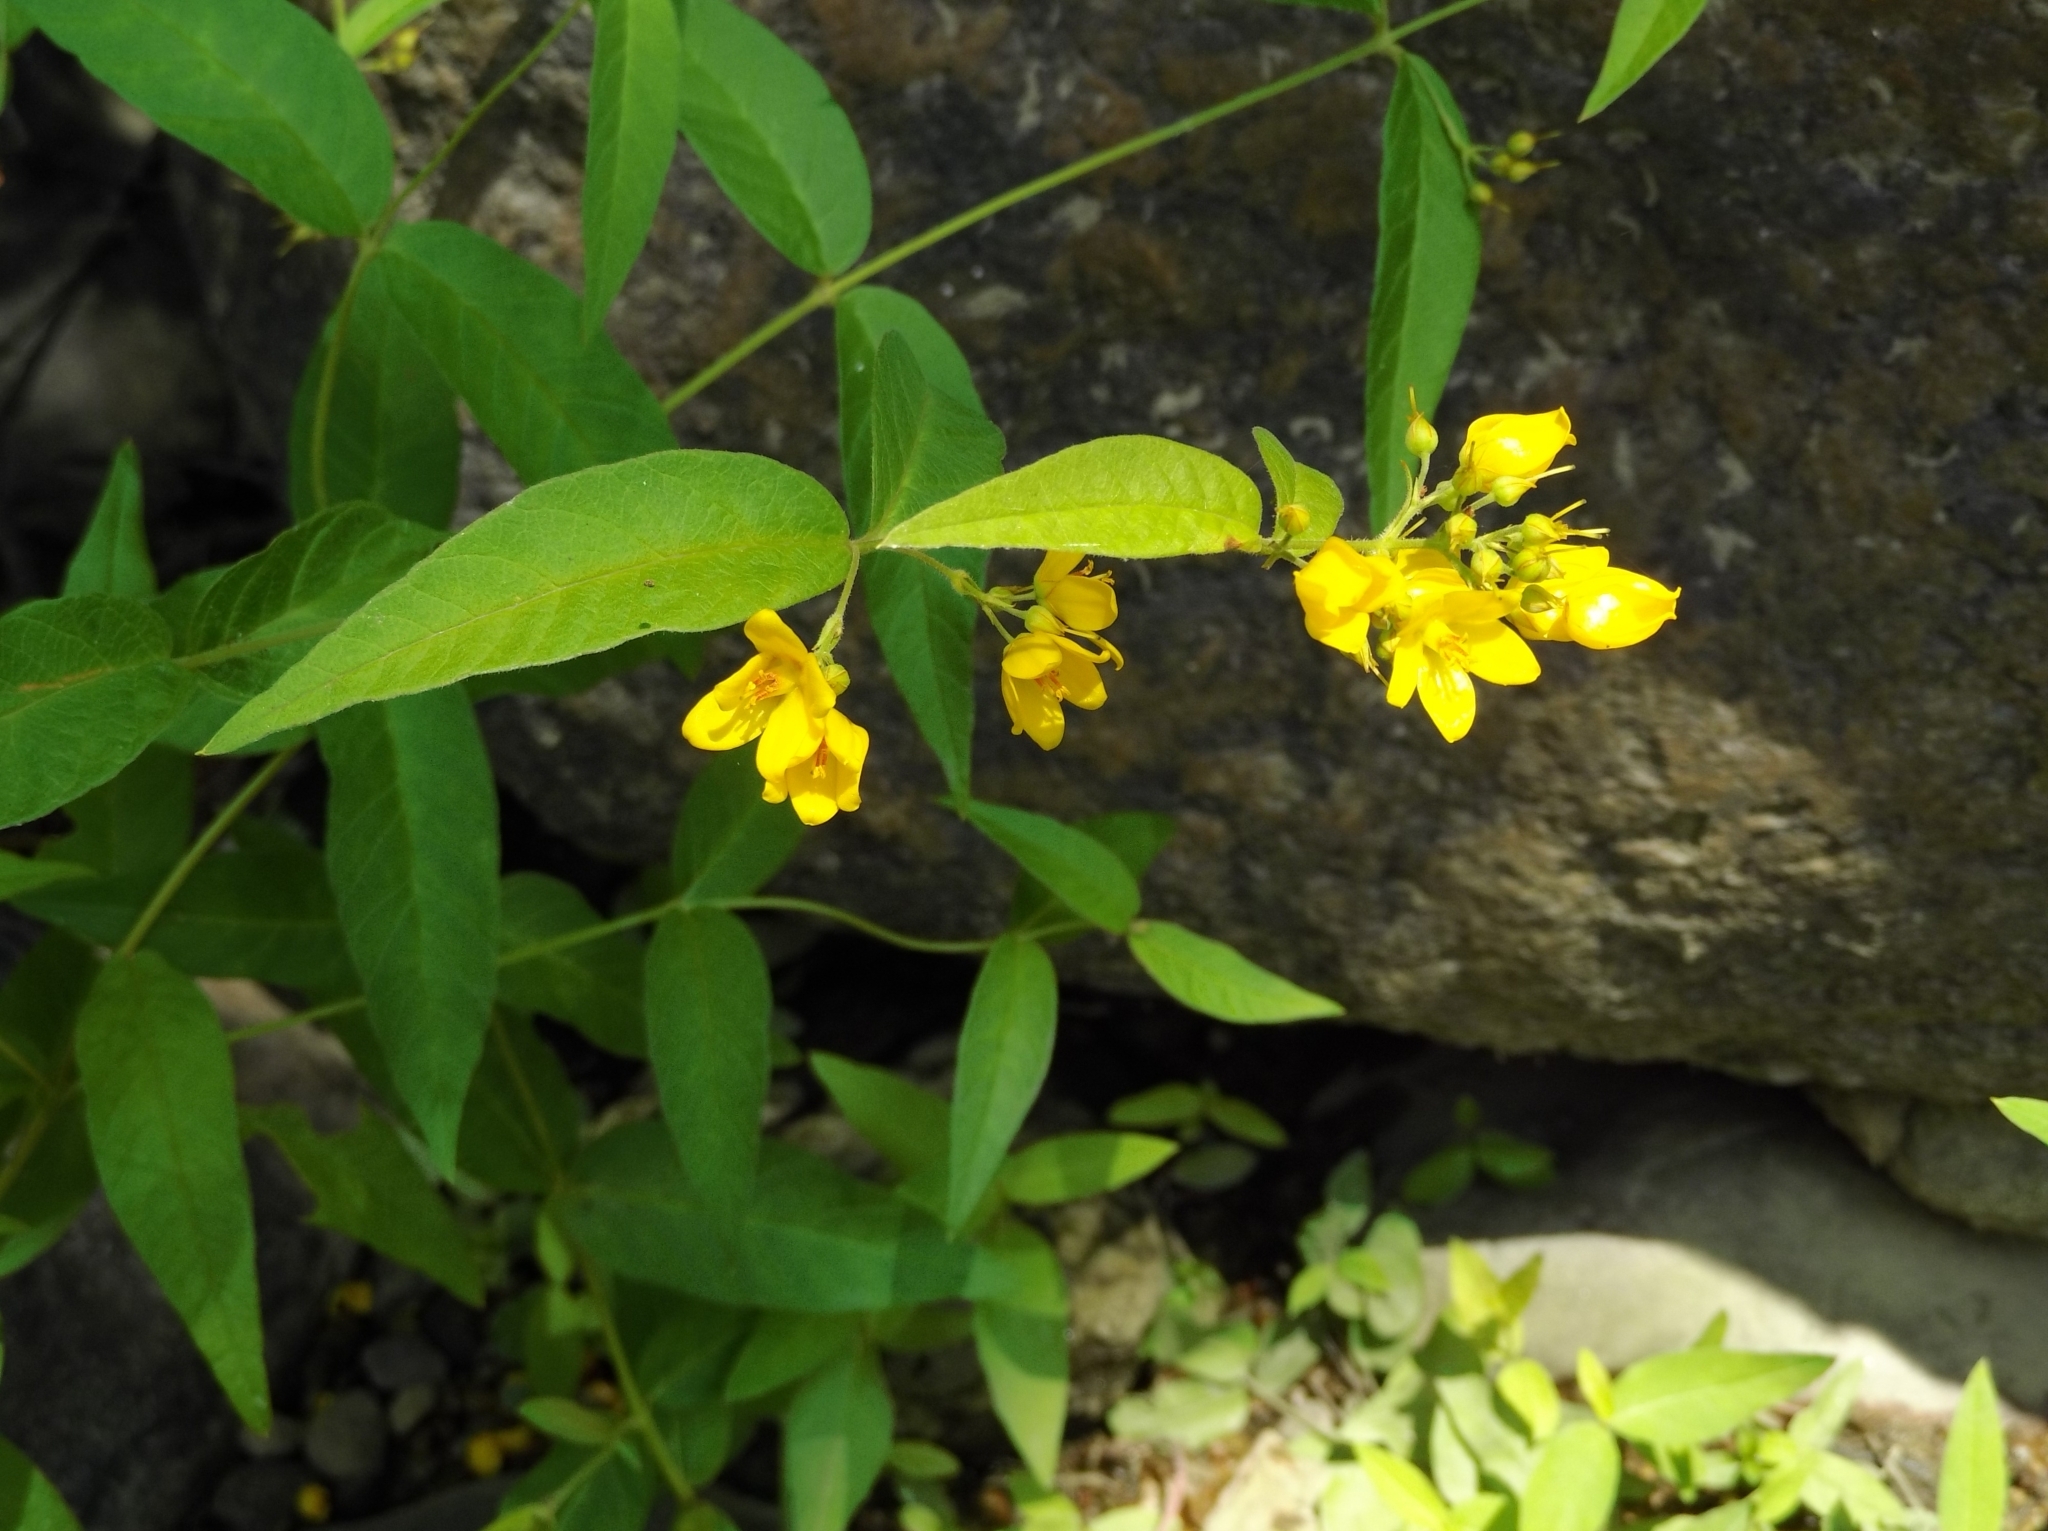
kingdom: Plantae
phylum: Tracheophyta
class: Magnoliopsida
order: Ericales
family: Primulaceae
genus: Lysimachia
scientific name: Lysimachia vulgaris
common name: Yellow loosestrife
